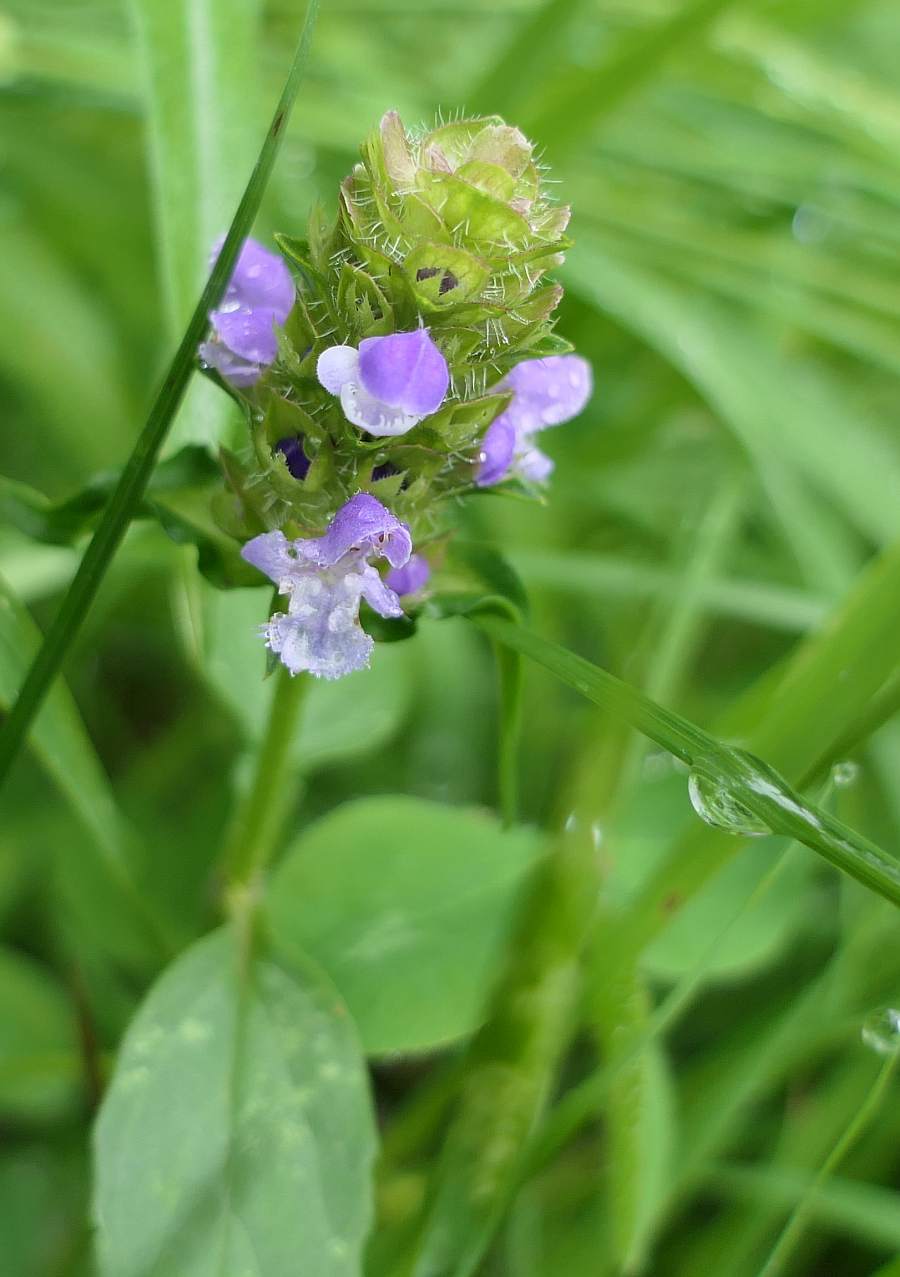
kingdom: Plantae
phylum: Tracheophyta
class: Magnoliopsida
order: Lamiales
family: Lamiaceae
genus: Prunella
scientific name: Prunella vulgaris
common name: Heal-all
